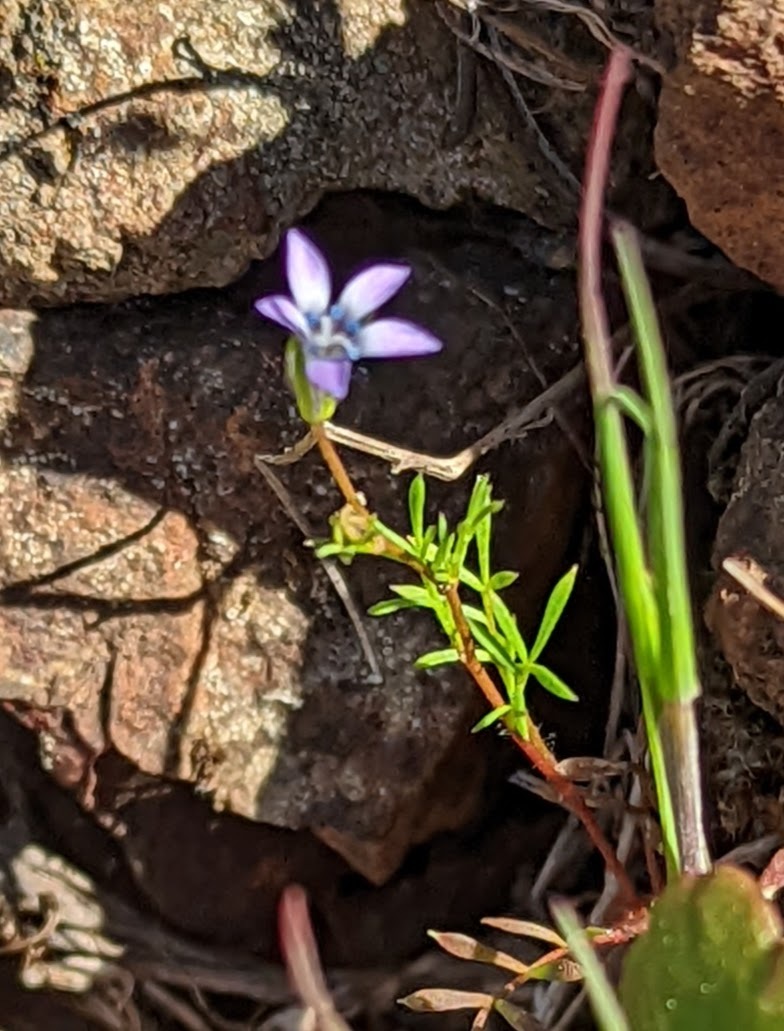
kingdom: Plantae
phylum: Tracheophyta
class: Magnoliopsida
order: Ericales
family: Polemoniaceae
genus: Gilia
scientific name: Gilia clivorum
